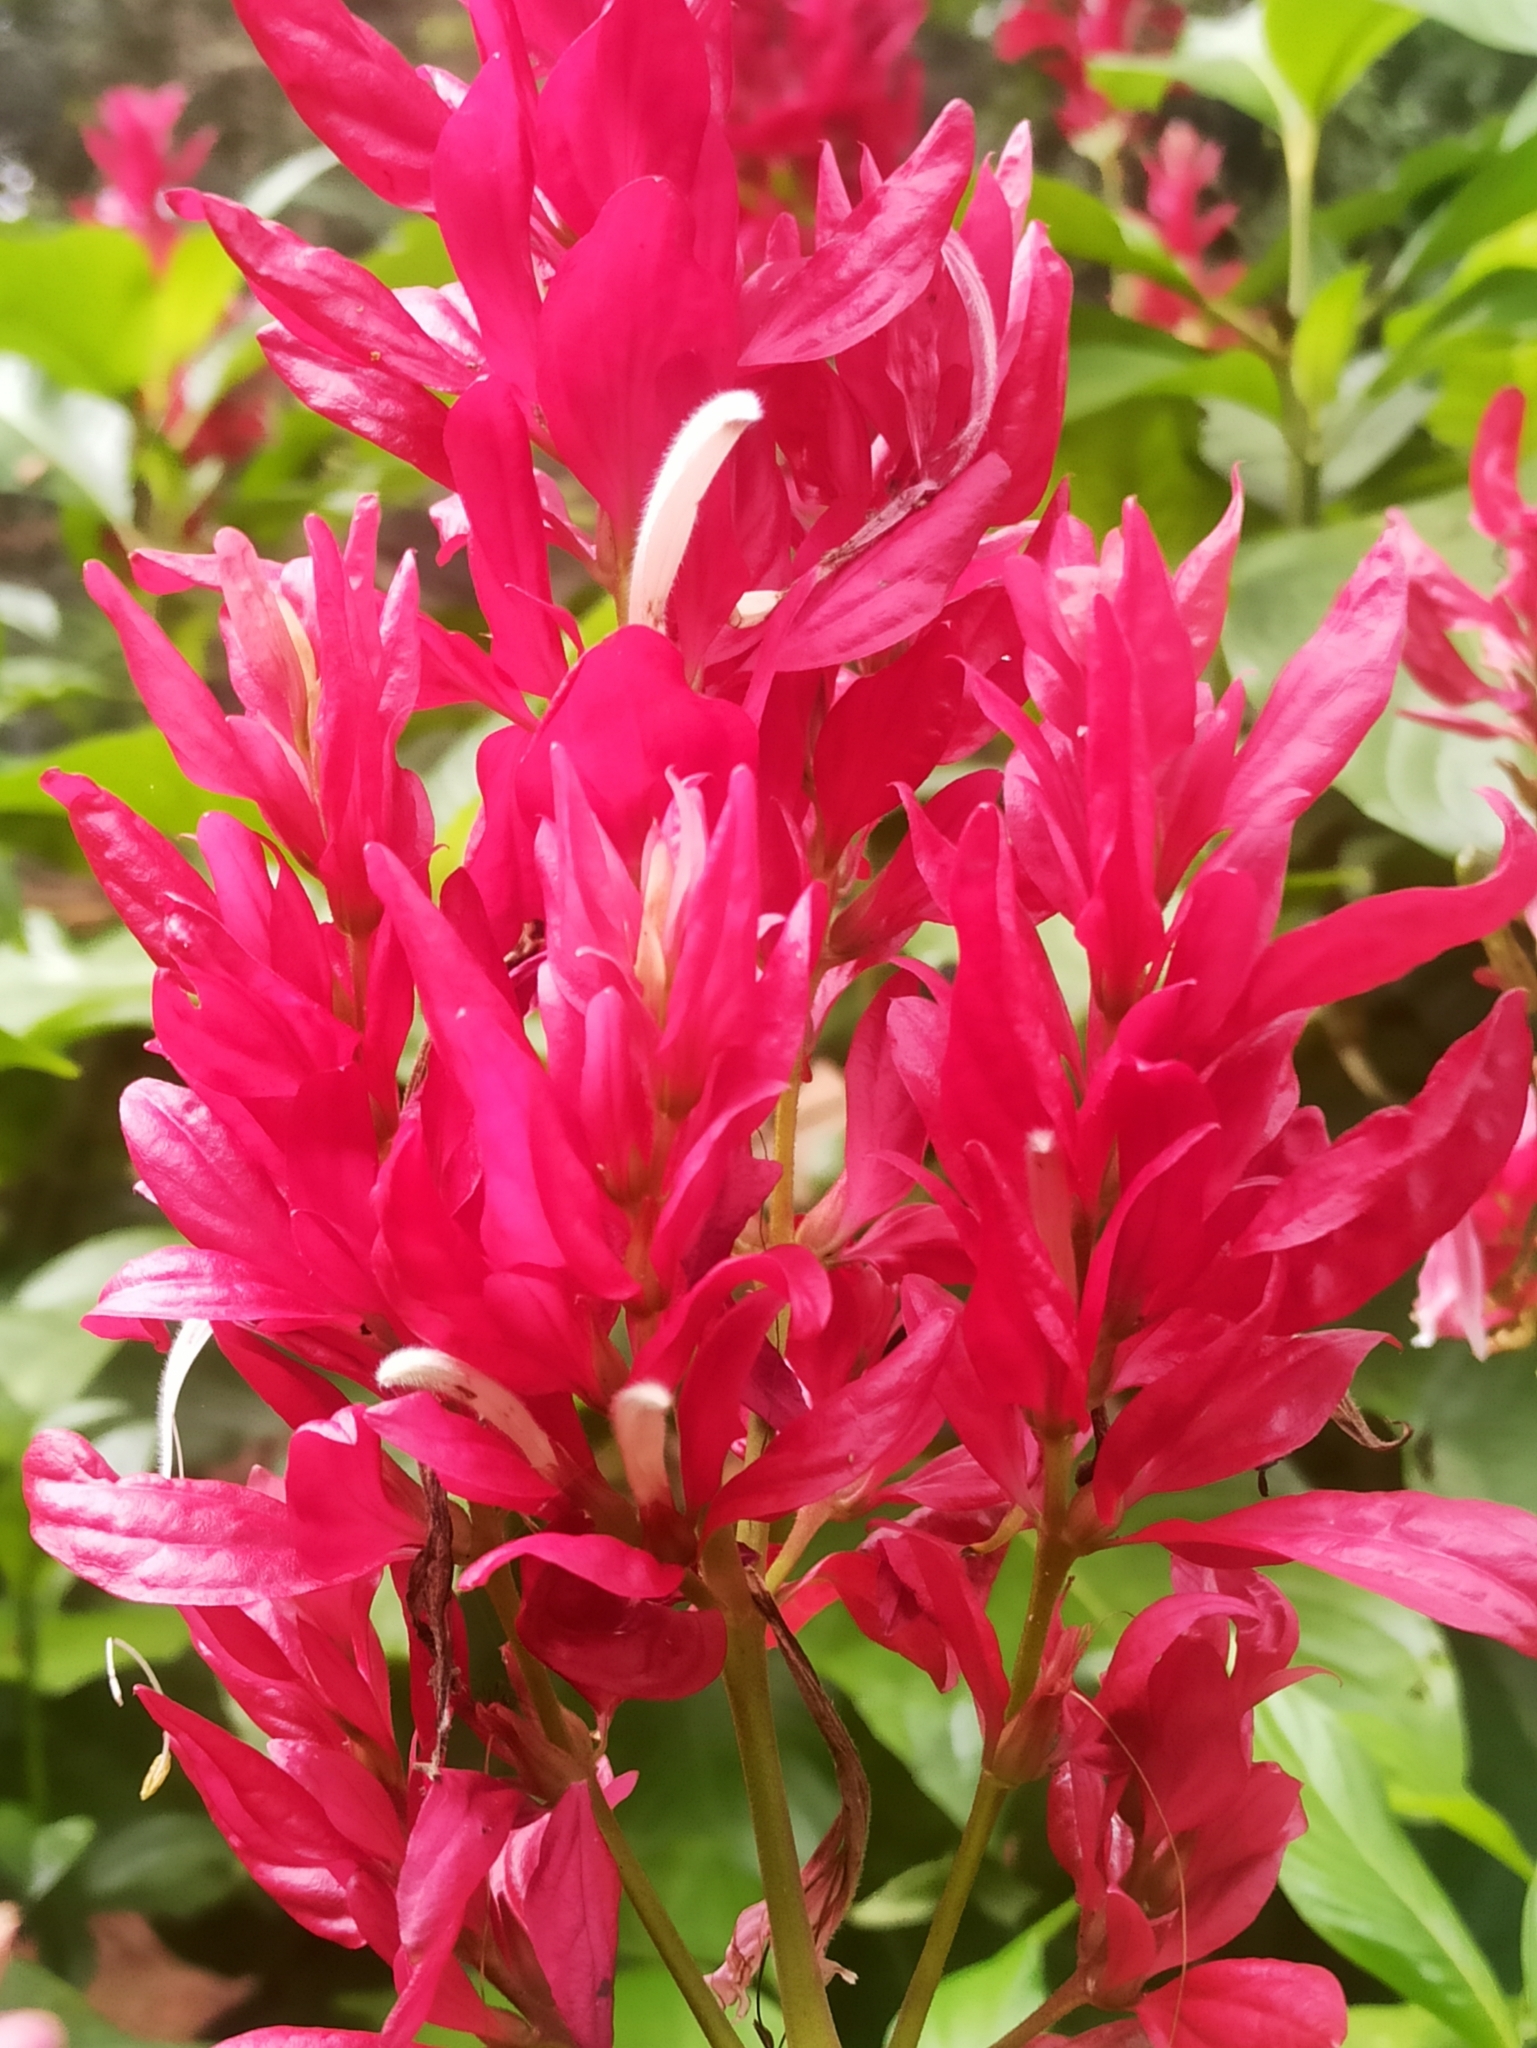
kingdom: Plantae
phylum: Tracheophyta
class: Magnoliopsida
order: Lamiales
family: Acanthaceae
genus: Megaskepasma
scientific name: Megaskepasma erythrochlamys
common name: Brazilian red-cloak
